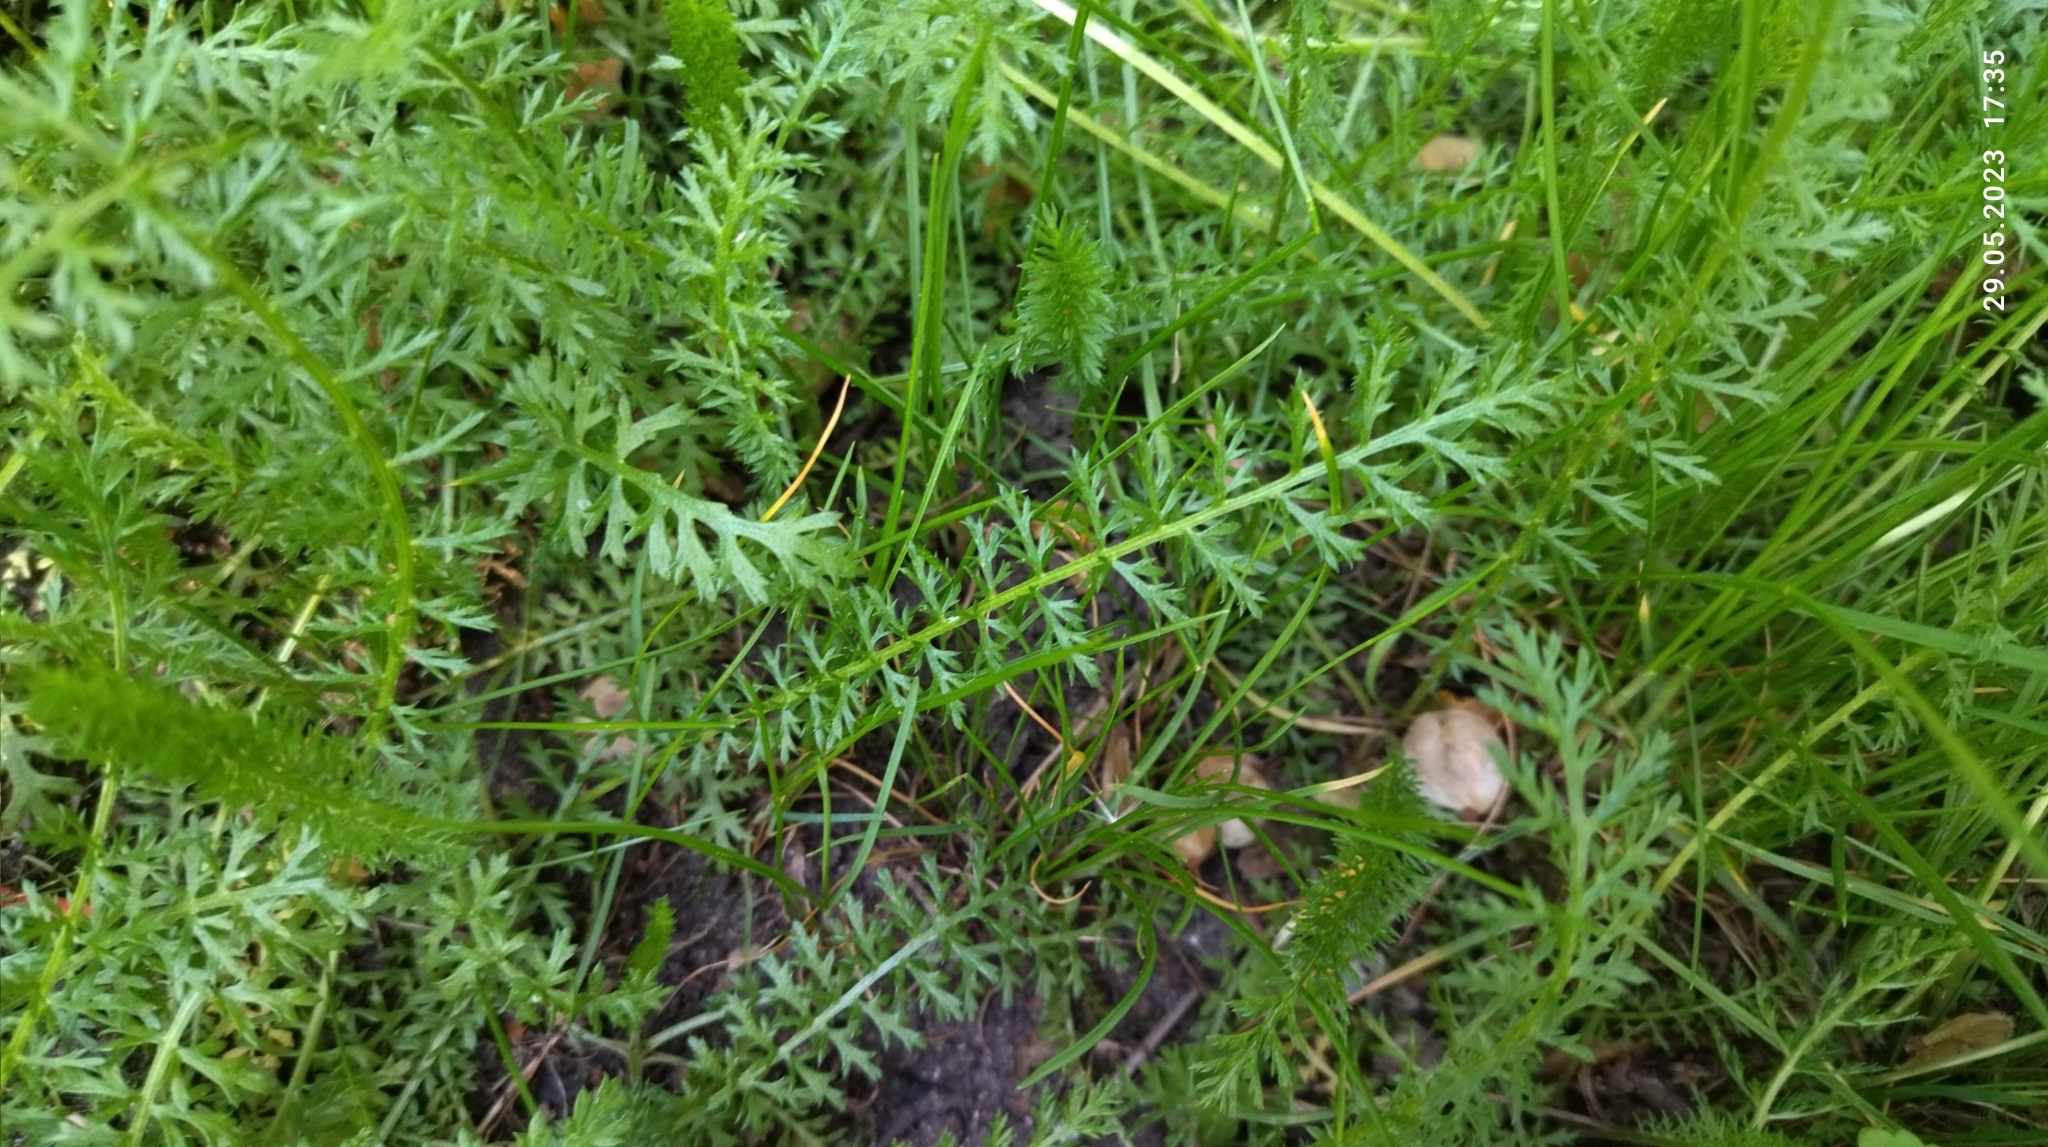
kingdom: Plantae
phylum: Tracheophyta
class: Magnoliopsida
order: Asterales
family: Asteraceae
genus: Achillea
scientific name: Achillea millefolium
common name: Yarrow
